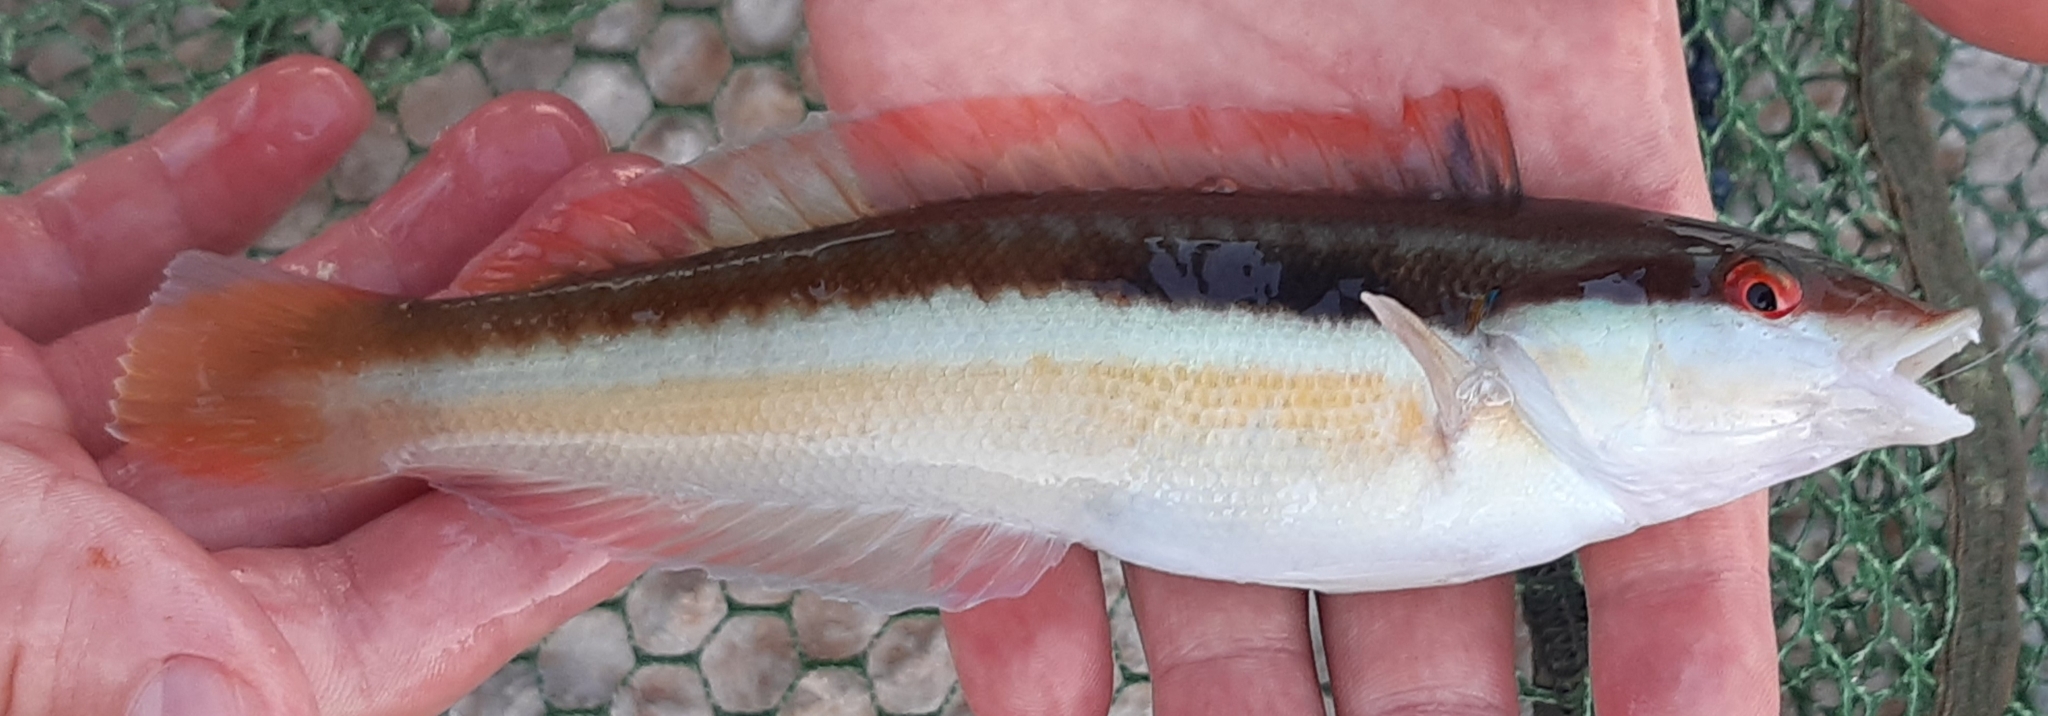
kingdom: Animalia
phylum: Chordata
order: Perciformes
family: Labridae
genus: Coris
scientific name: Coris julis
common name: Rainbow wrasse
